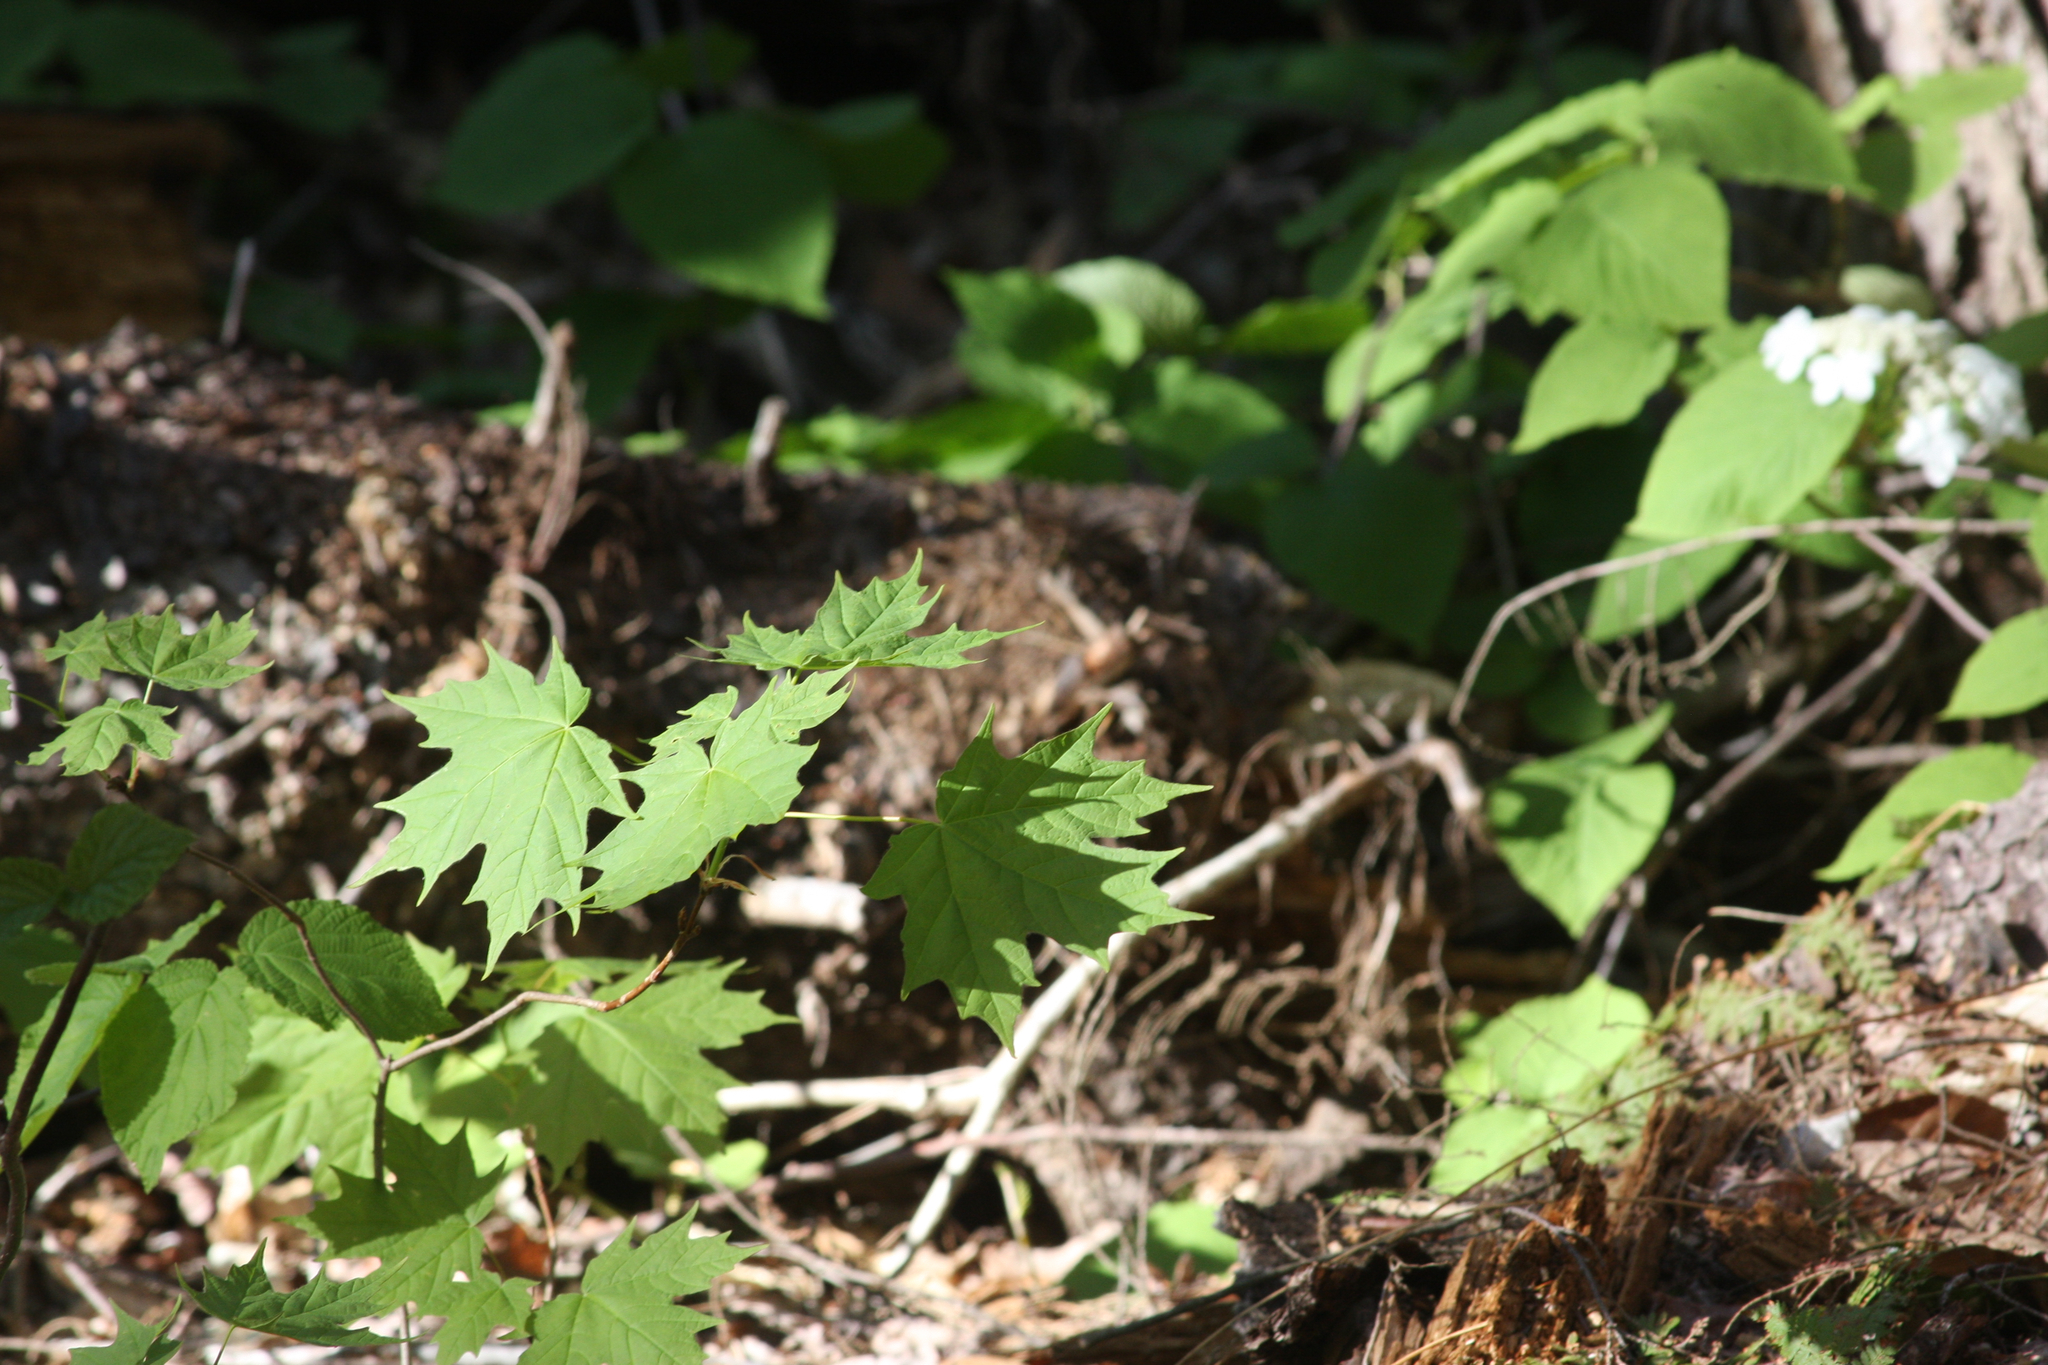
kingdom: Plantae
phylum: Tracheophyta
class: Magnoliopsida
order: Sapindales
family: Sapindaceae
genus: Acer
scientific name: Acer saccharum
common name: Sugar maple
